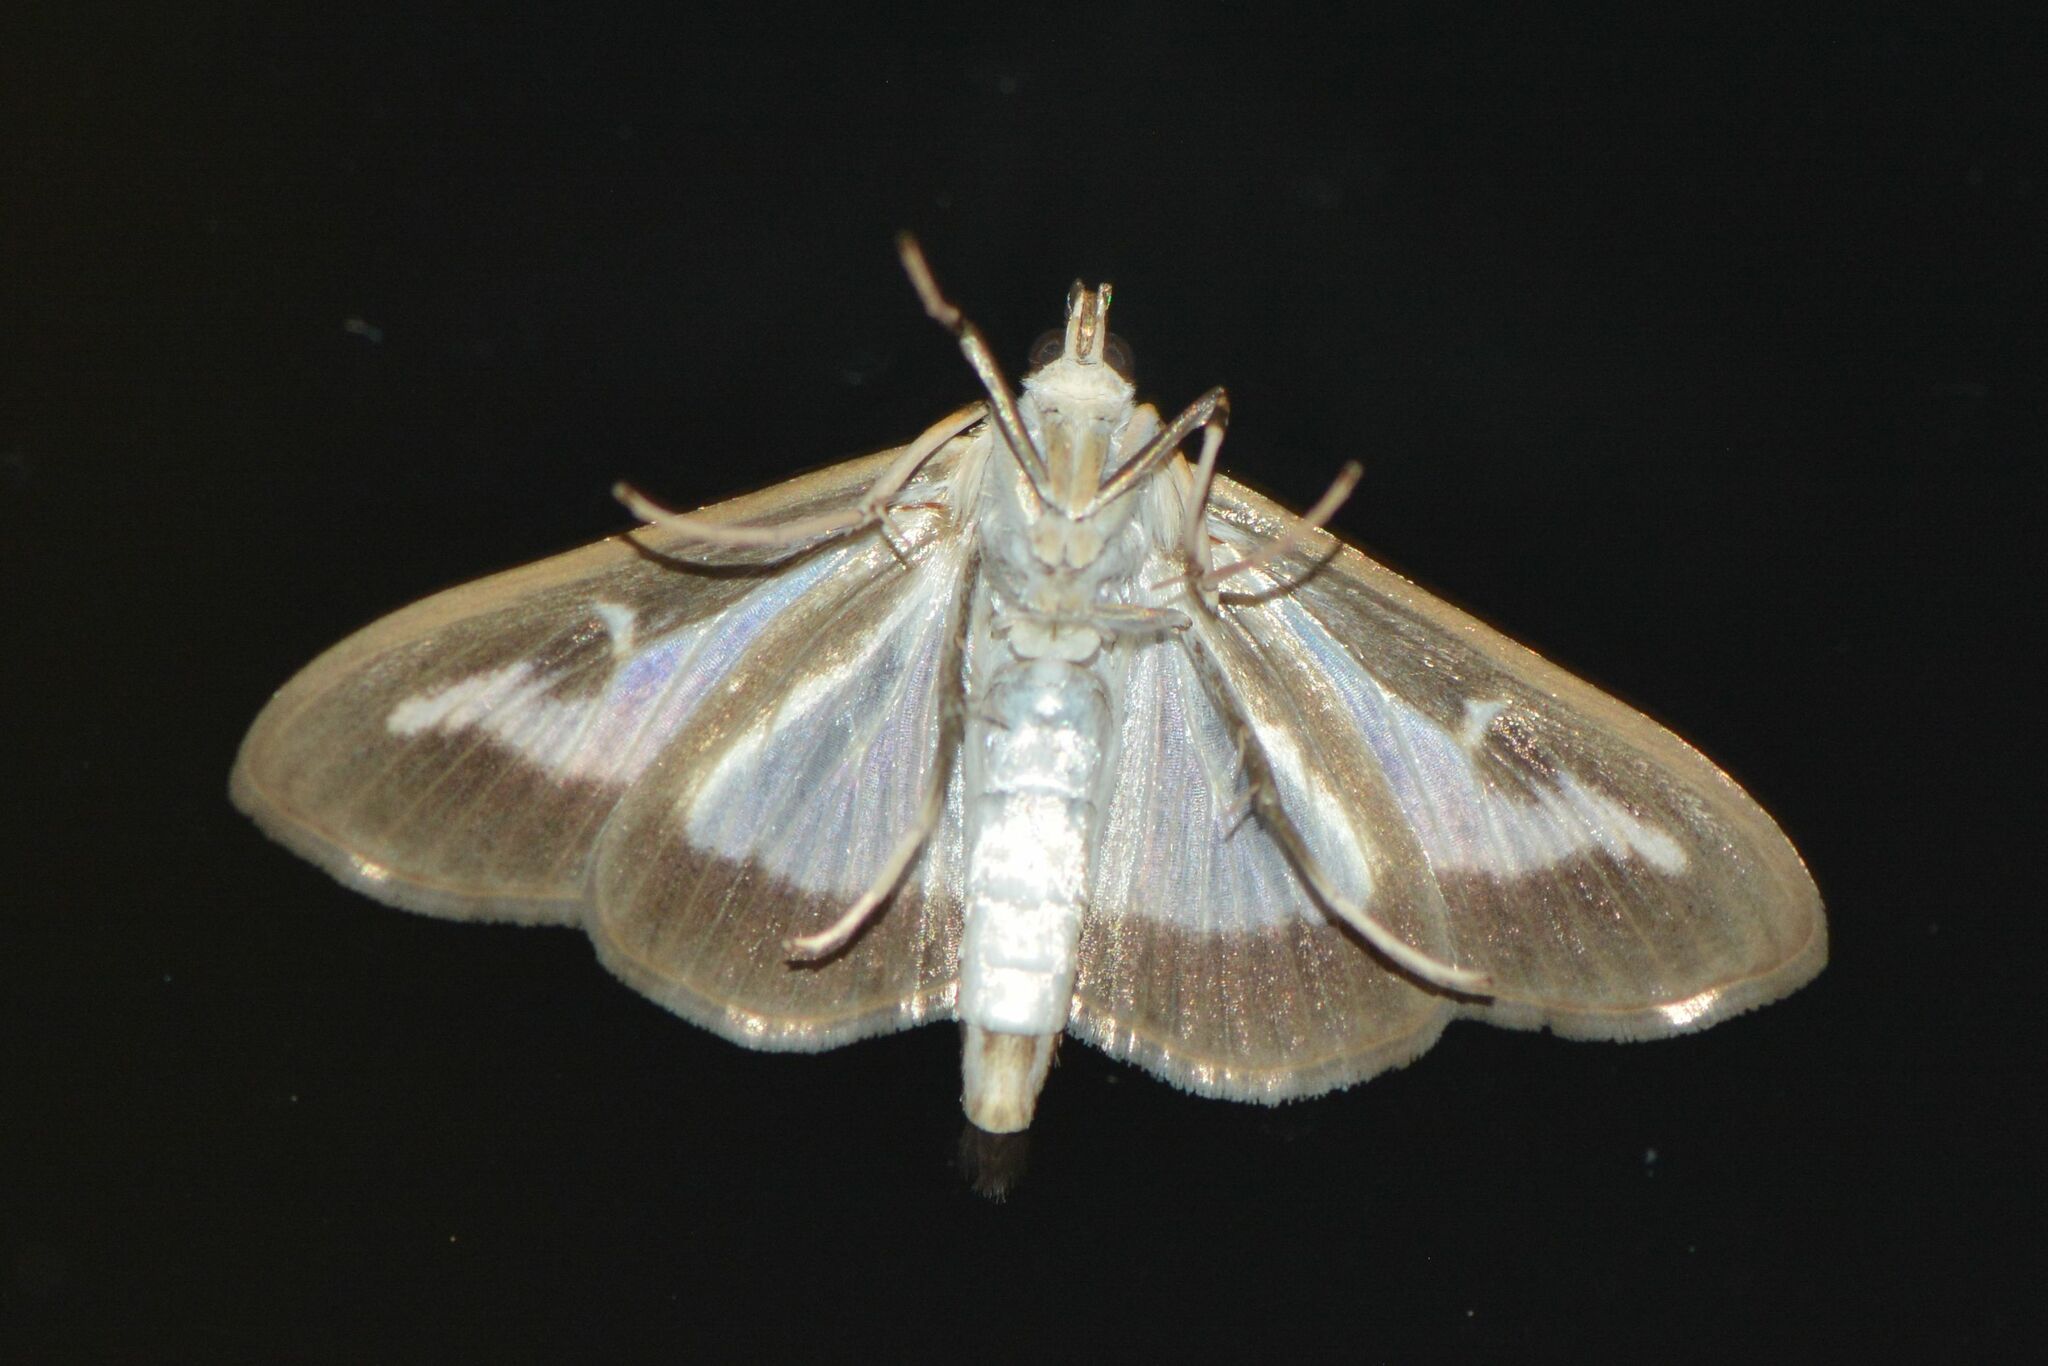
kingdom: Animalia
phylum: Arthropoda
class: Insecta
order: Lepidoptera
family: Crambidae
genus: Cydalima
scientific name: Cydalima perspectalis
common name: Box tree moth
